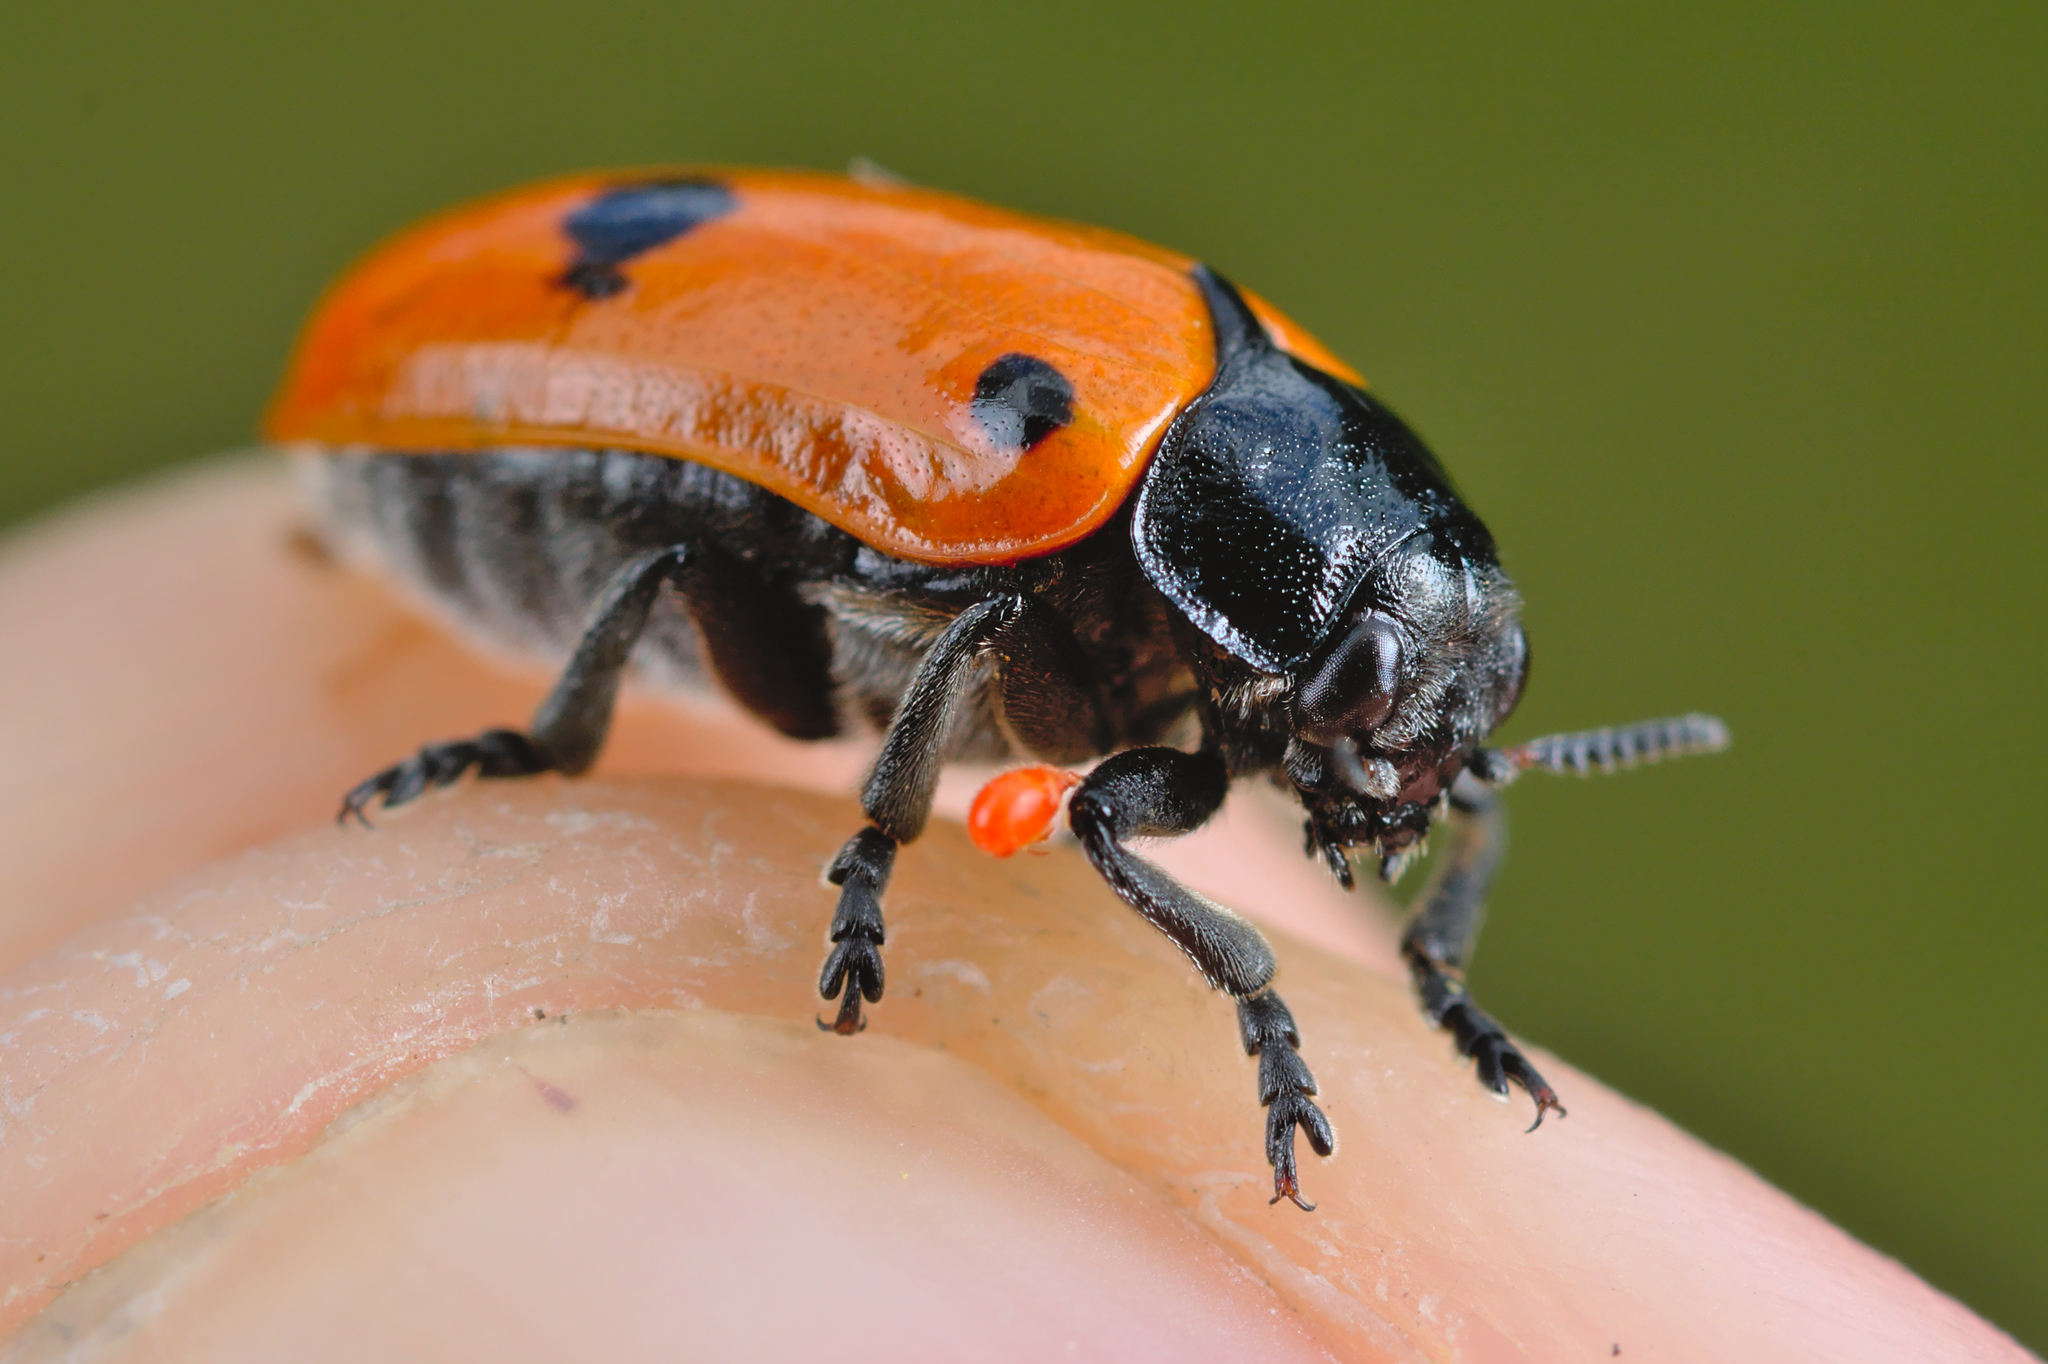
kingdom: Animalia
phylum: Arthropoda
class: Insecta
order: Coleoptera
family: Chrysomelidae
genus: Clytra
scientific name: Clytra quadripunctata
